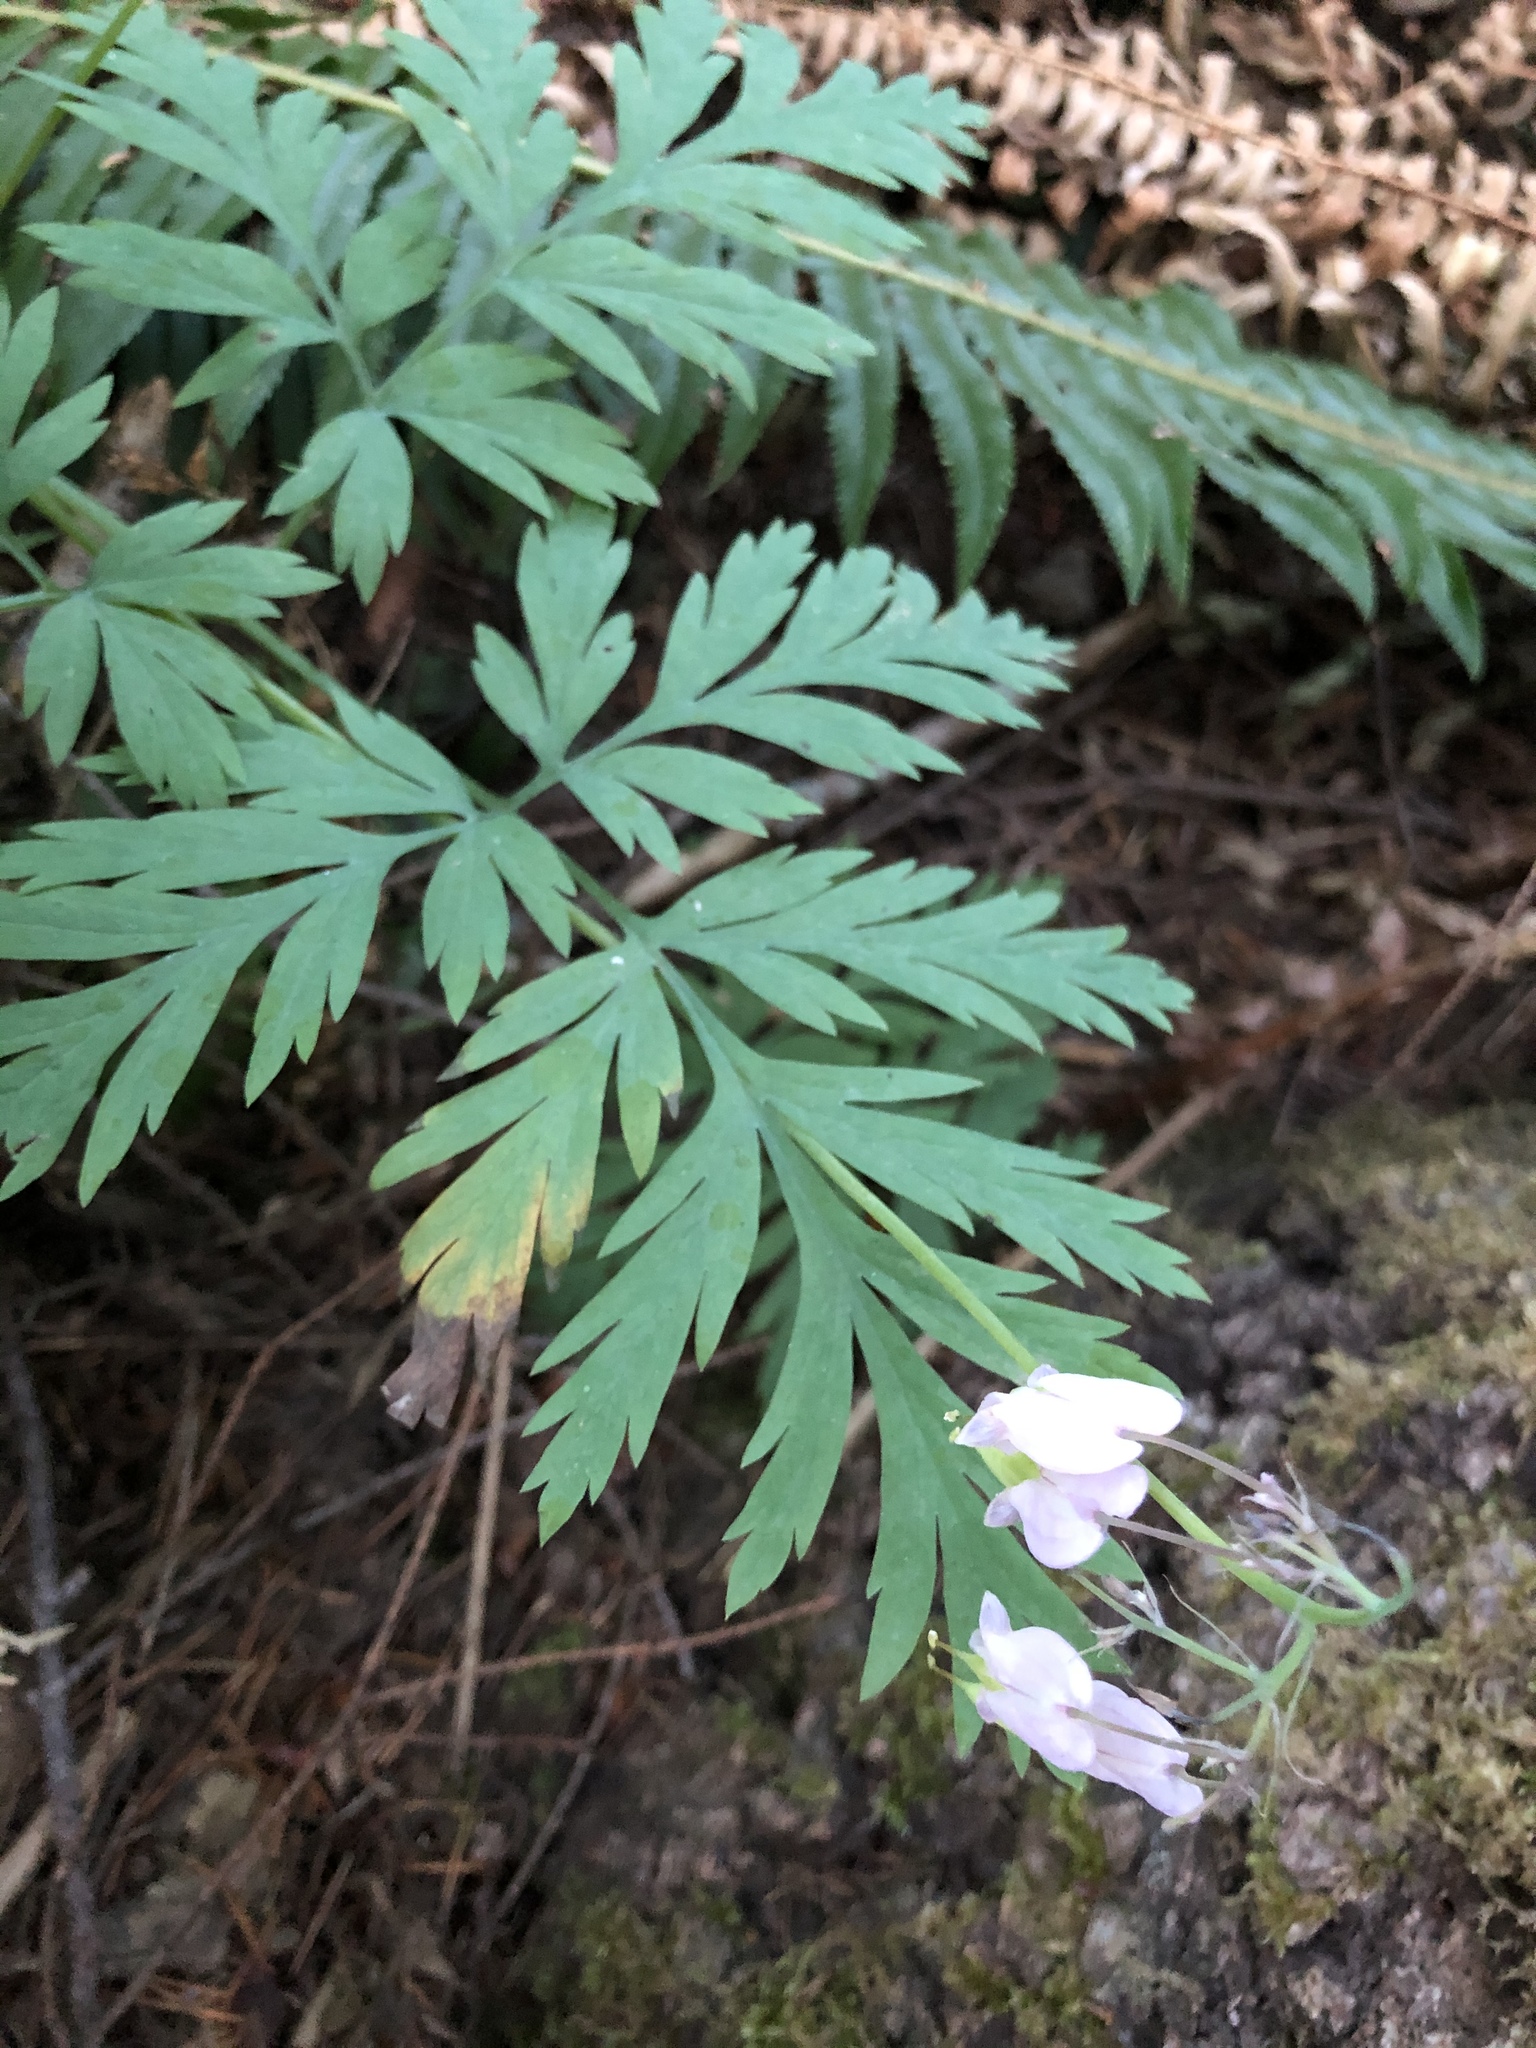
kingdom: Plantae
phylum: Tracheophyta
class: Magnoliopsida
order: Ranunculales
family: Papaveraceae
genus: Dicentra
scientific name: Dicentra formosa
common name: Bleeding-heart
